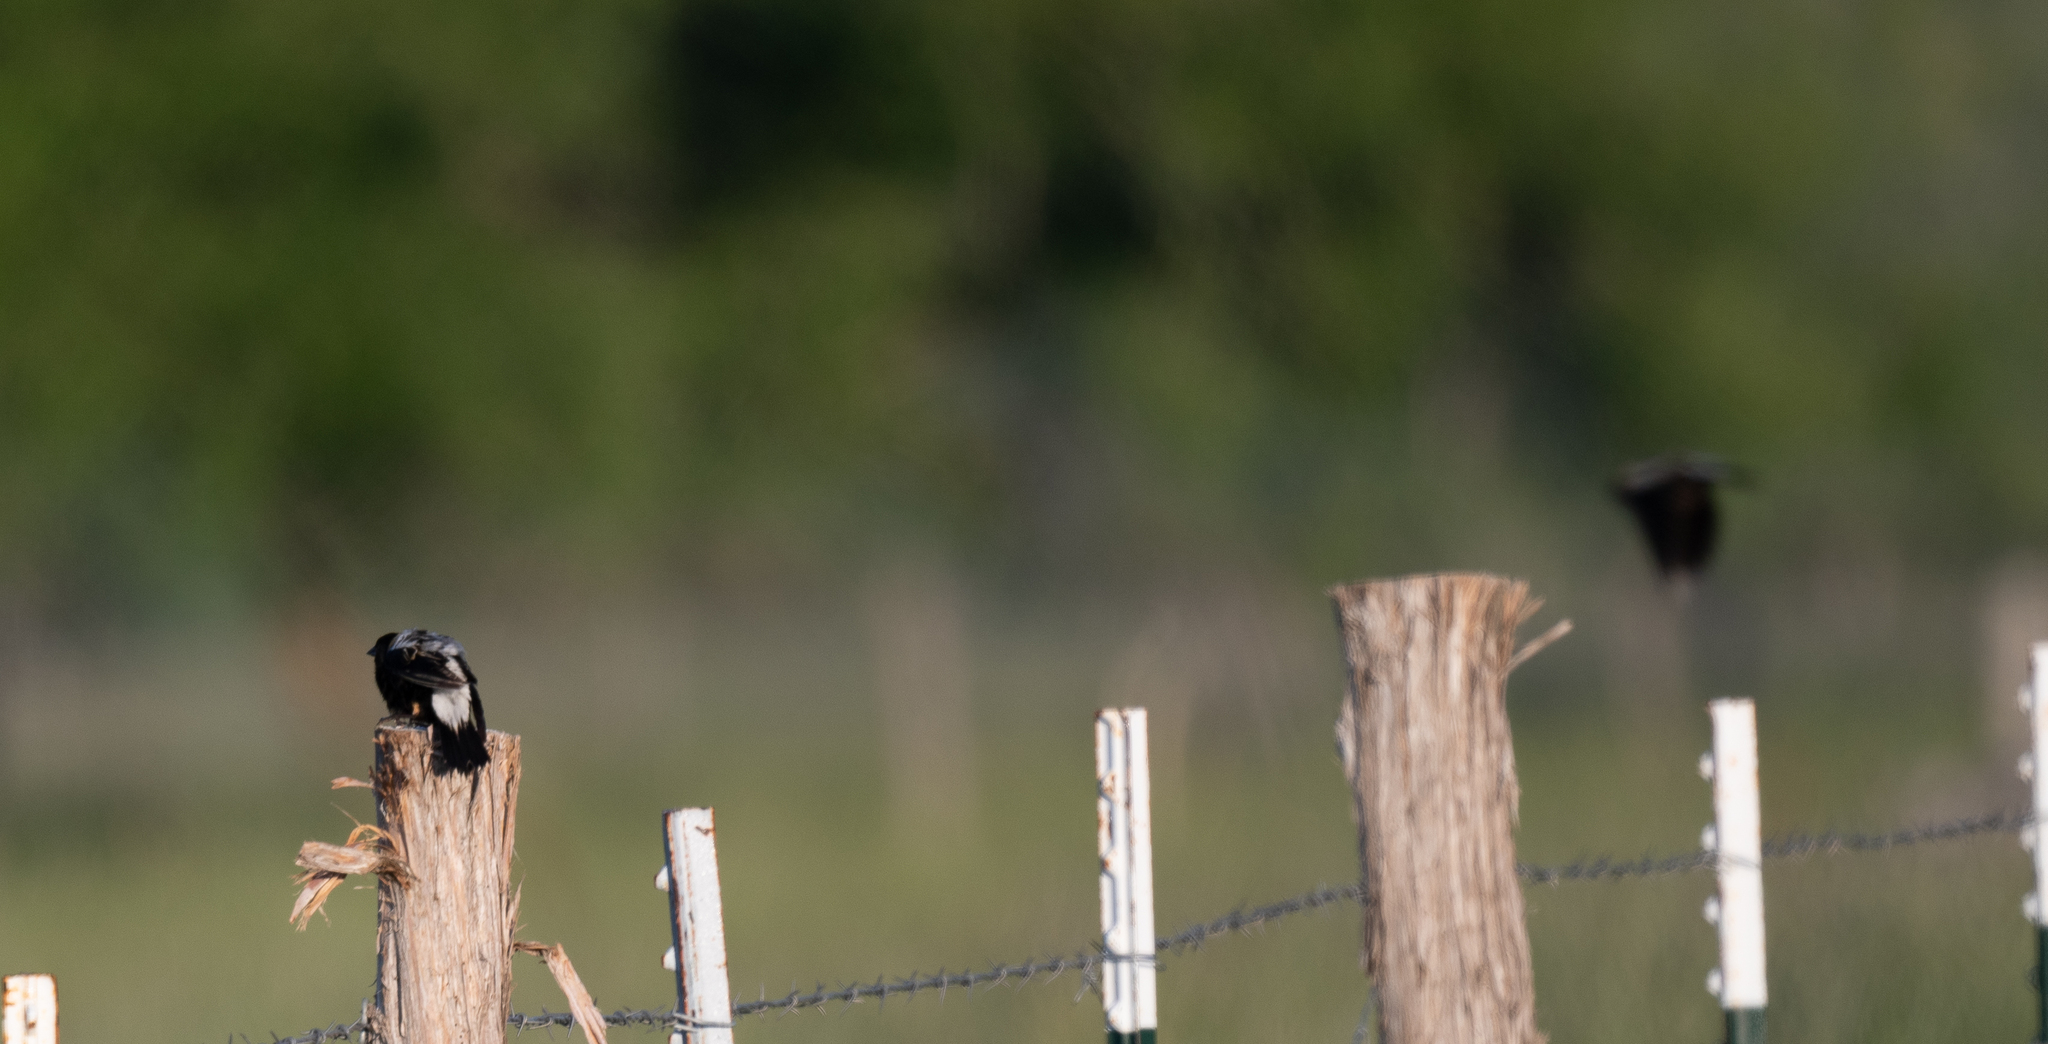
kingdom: Animalia
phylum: Chordata
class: Aves
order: Passeriformes
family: Icteridae
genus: Dolichonyx
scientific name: Dolichonyx oryzivorus
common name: Bobolink
